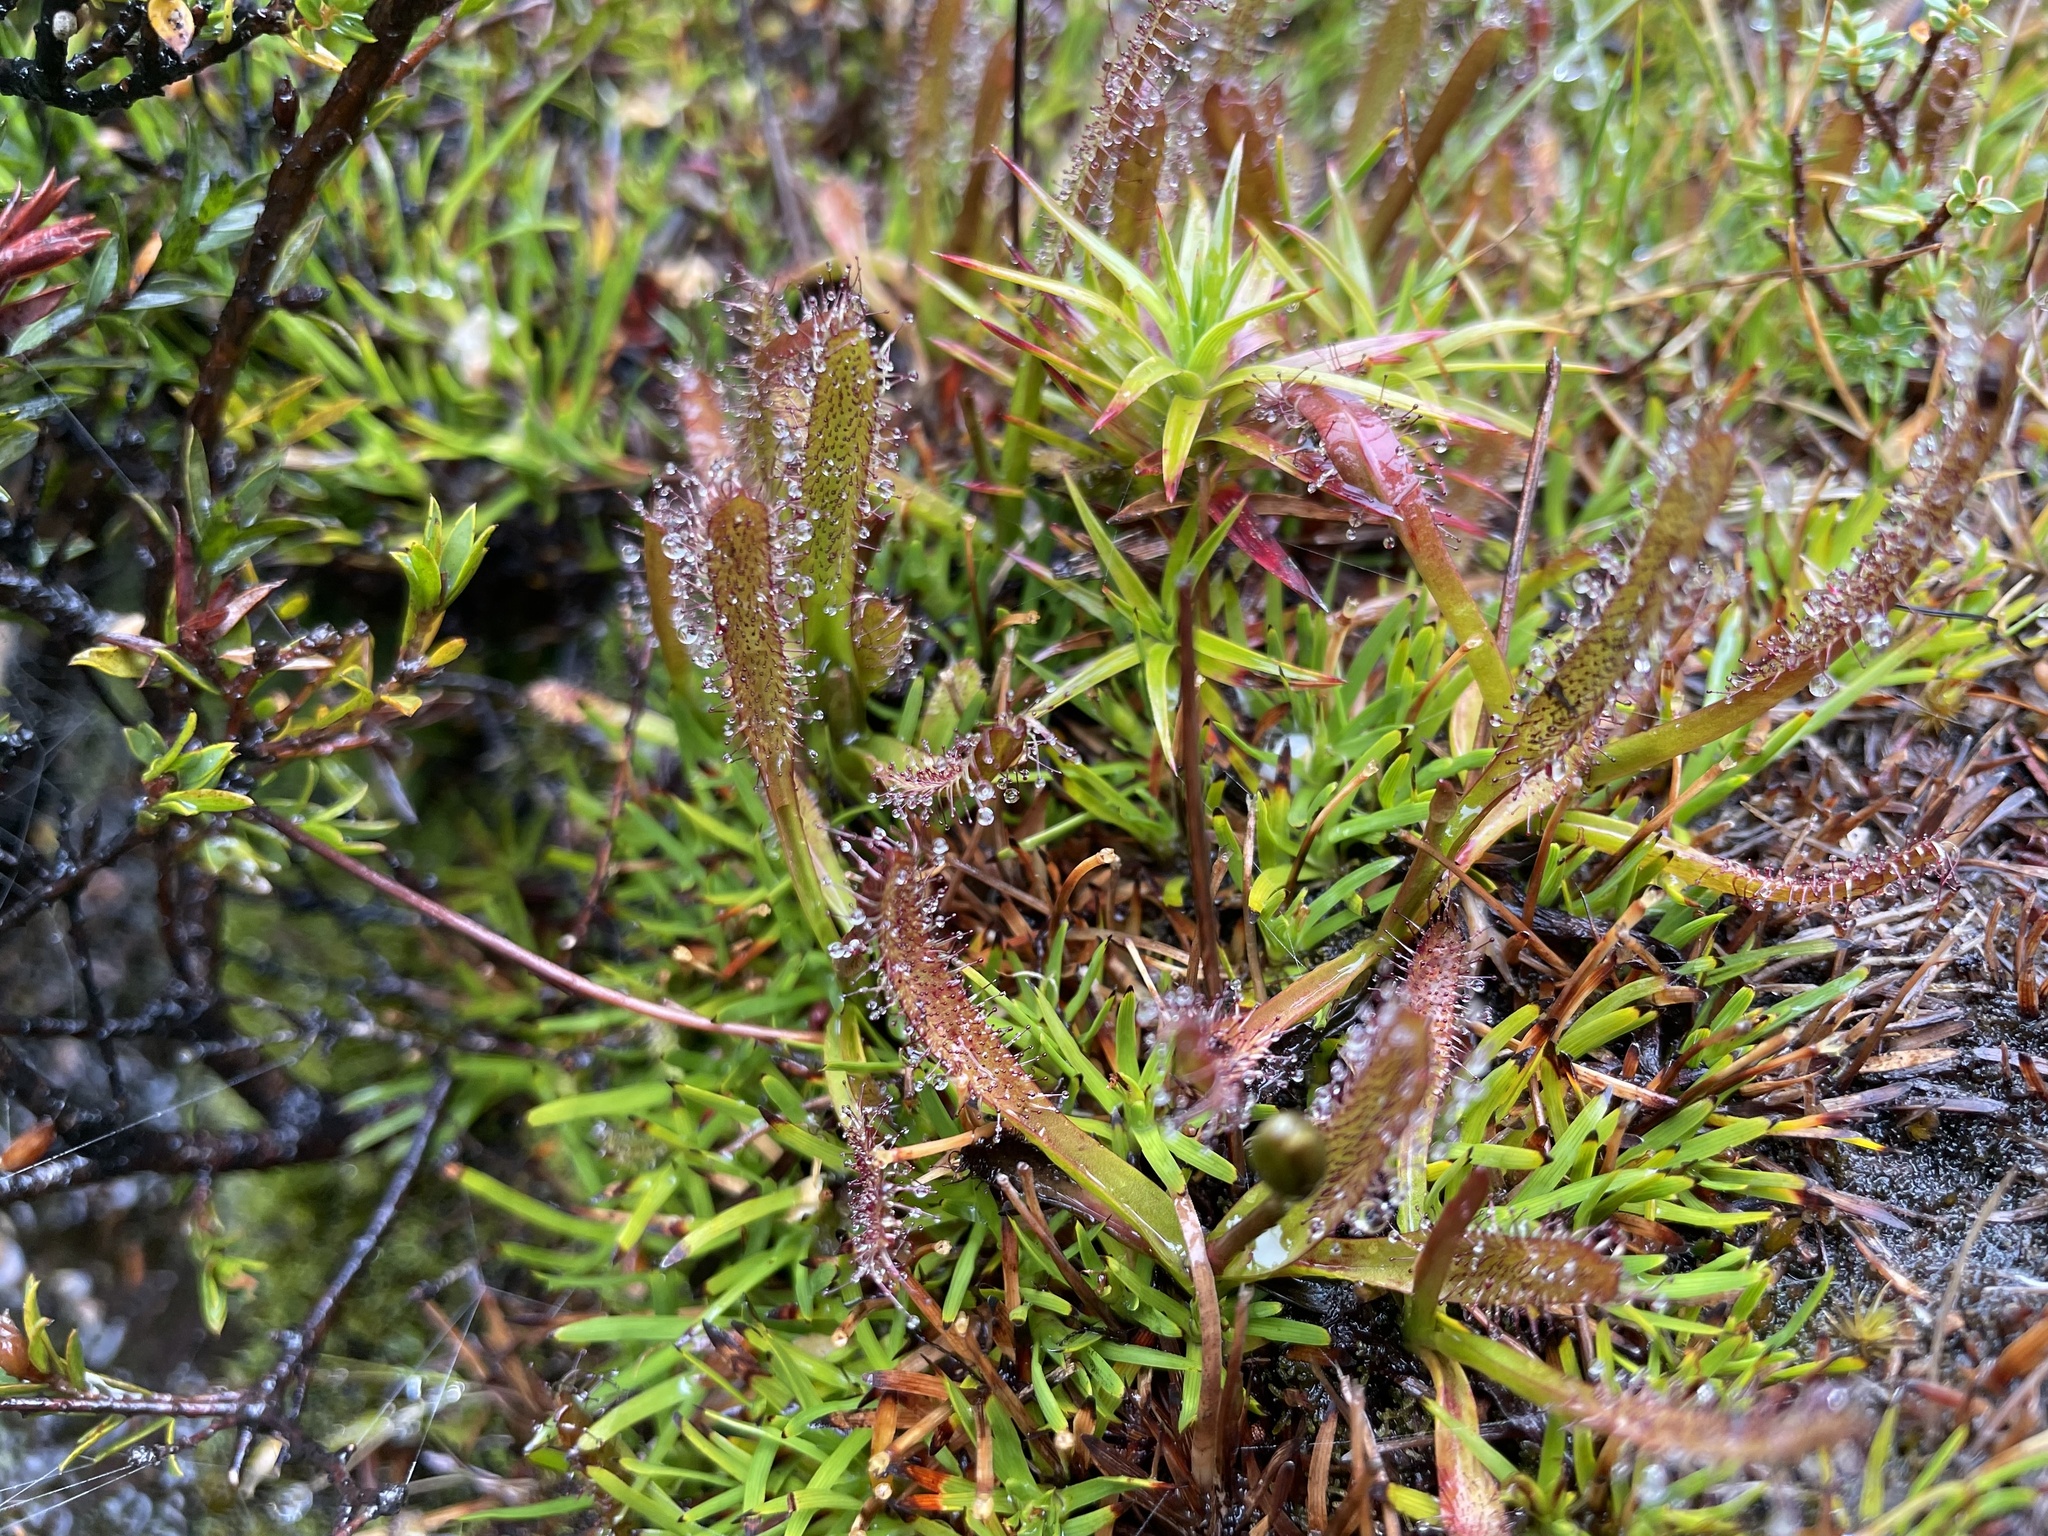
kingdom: Plantae
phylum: Tracheophyta
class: Magnoliopsida
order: Caryophyllales
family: Droseraceae
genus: Drosera
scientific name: Drosera arcturi
